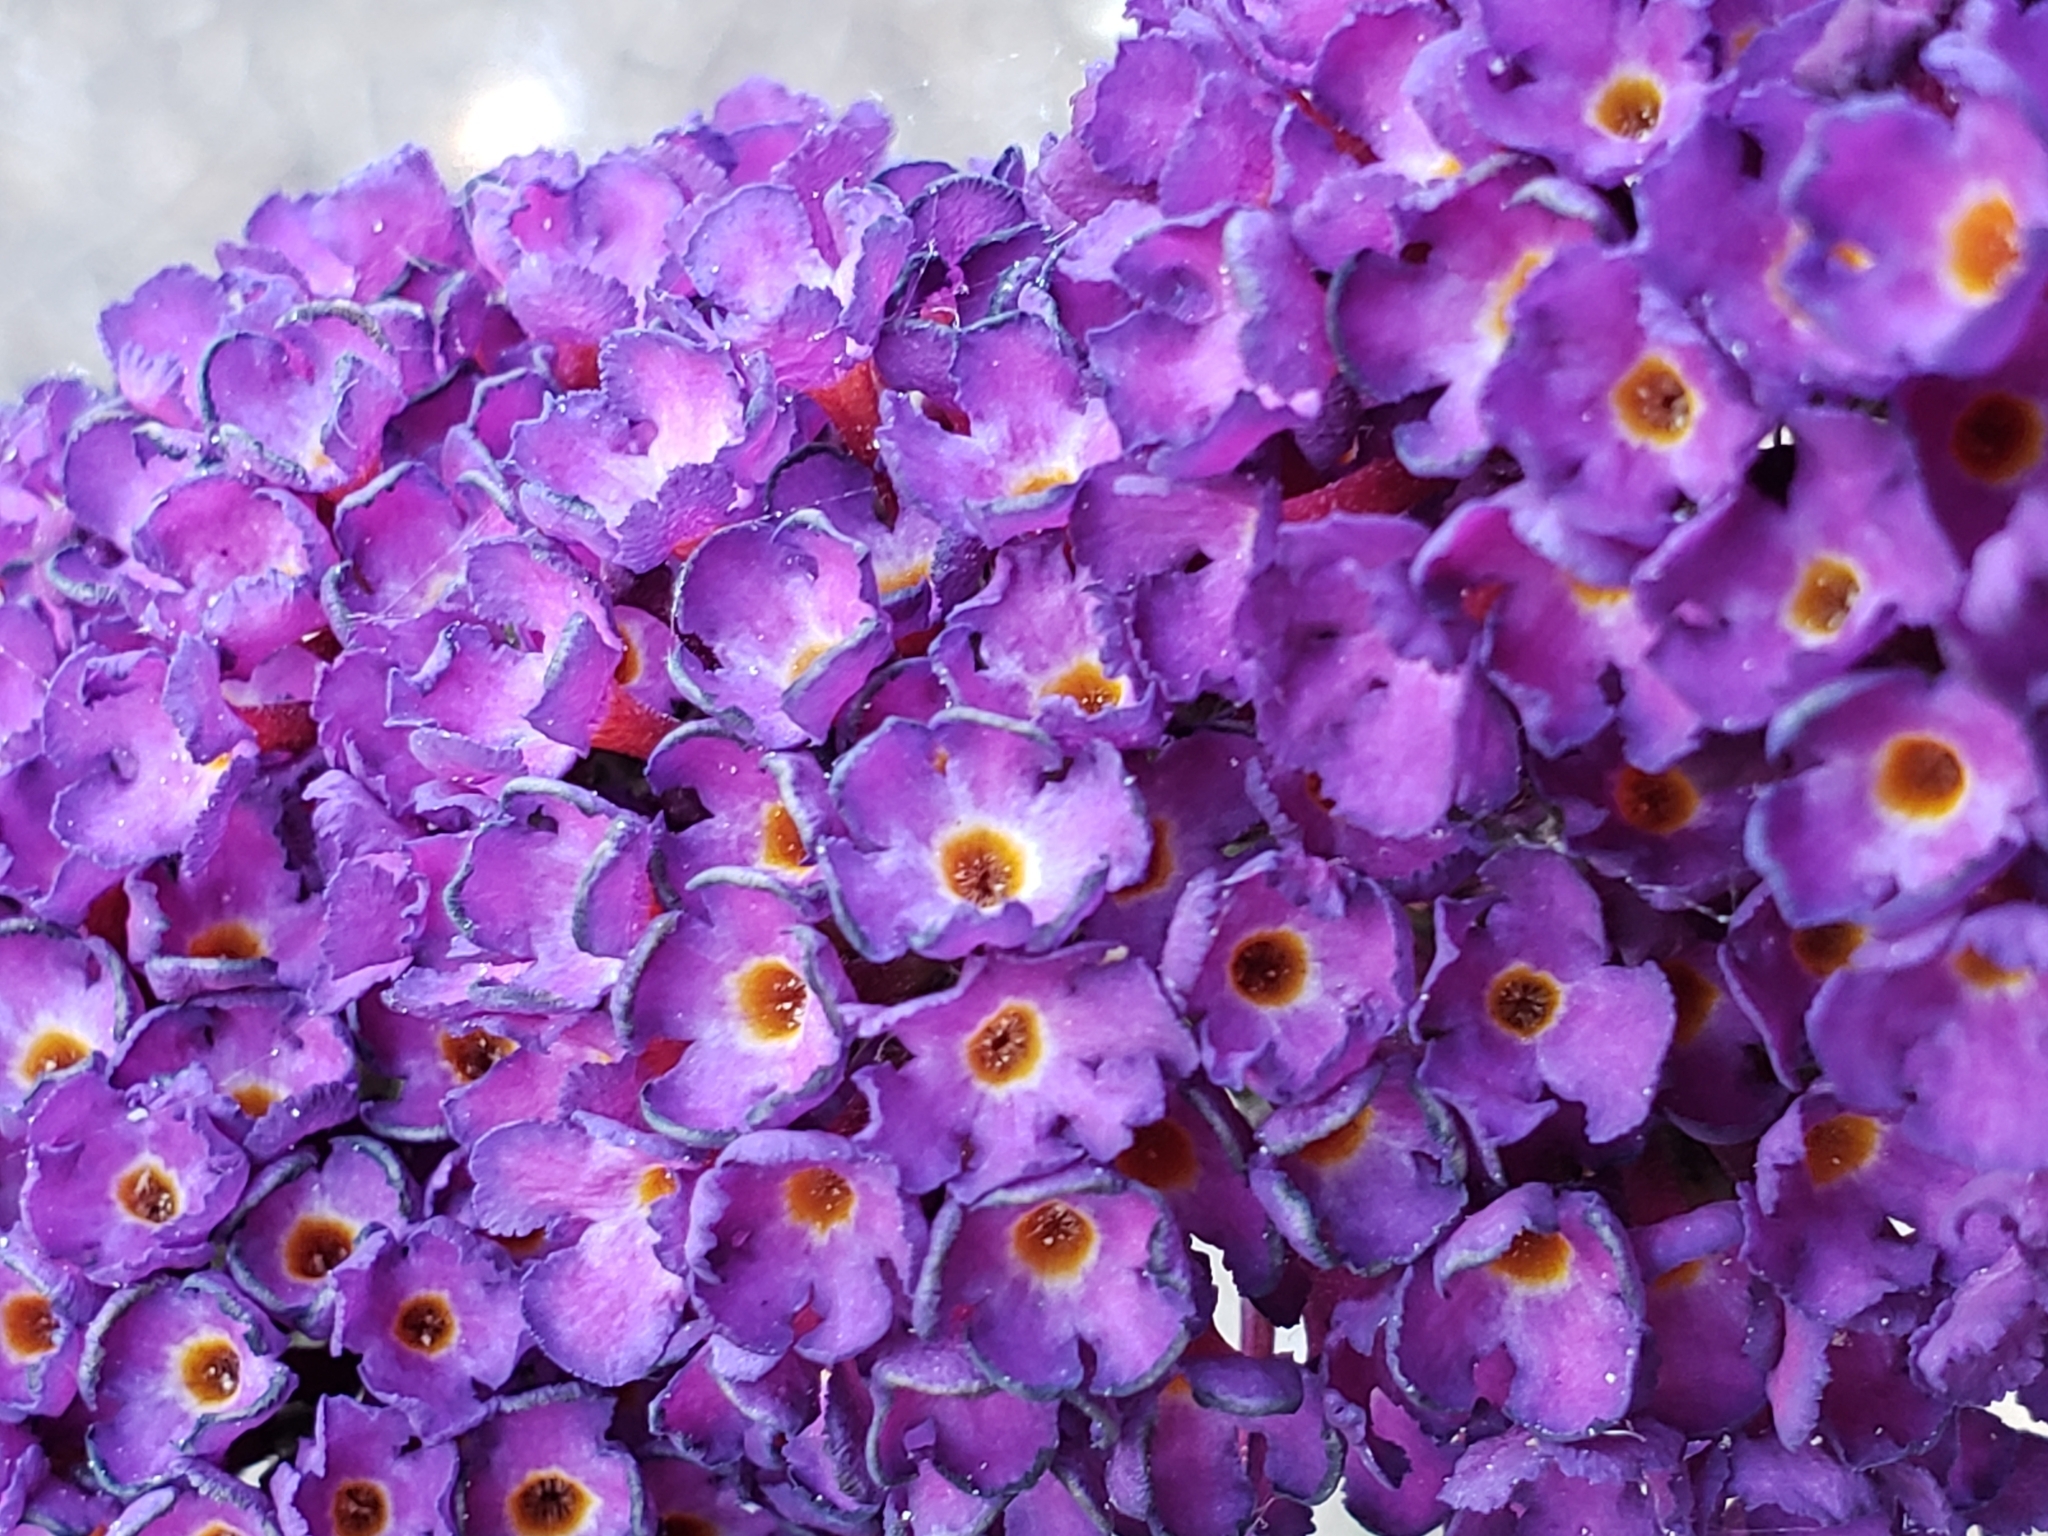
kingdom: Plantae
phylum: Tracheophyta
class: Magnoliopsida
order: Lamiales
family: Scrophulariaceae
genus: Buddleja
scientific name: Buddleja davidii
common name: Butterfly-bush
